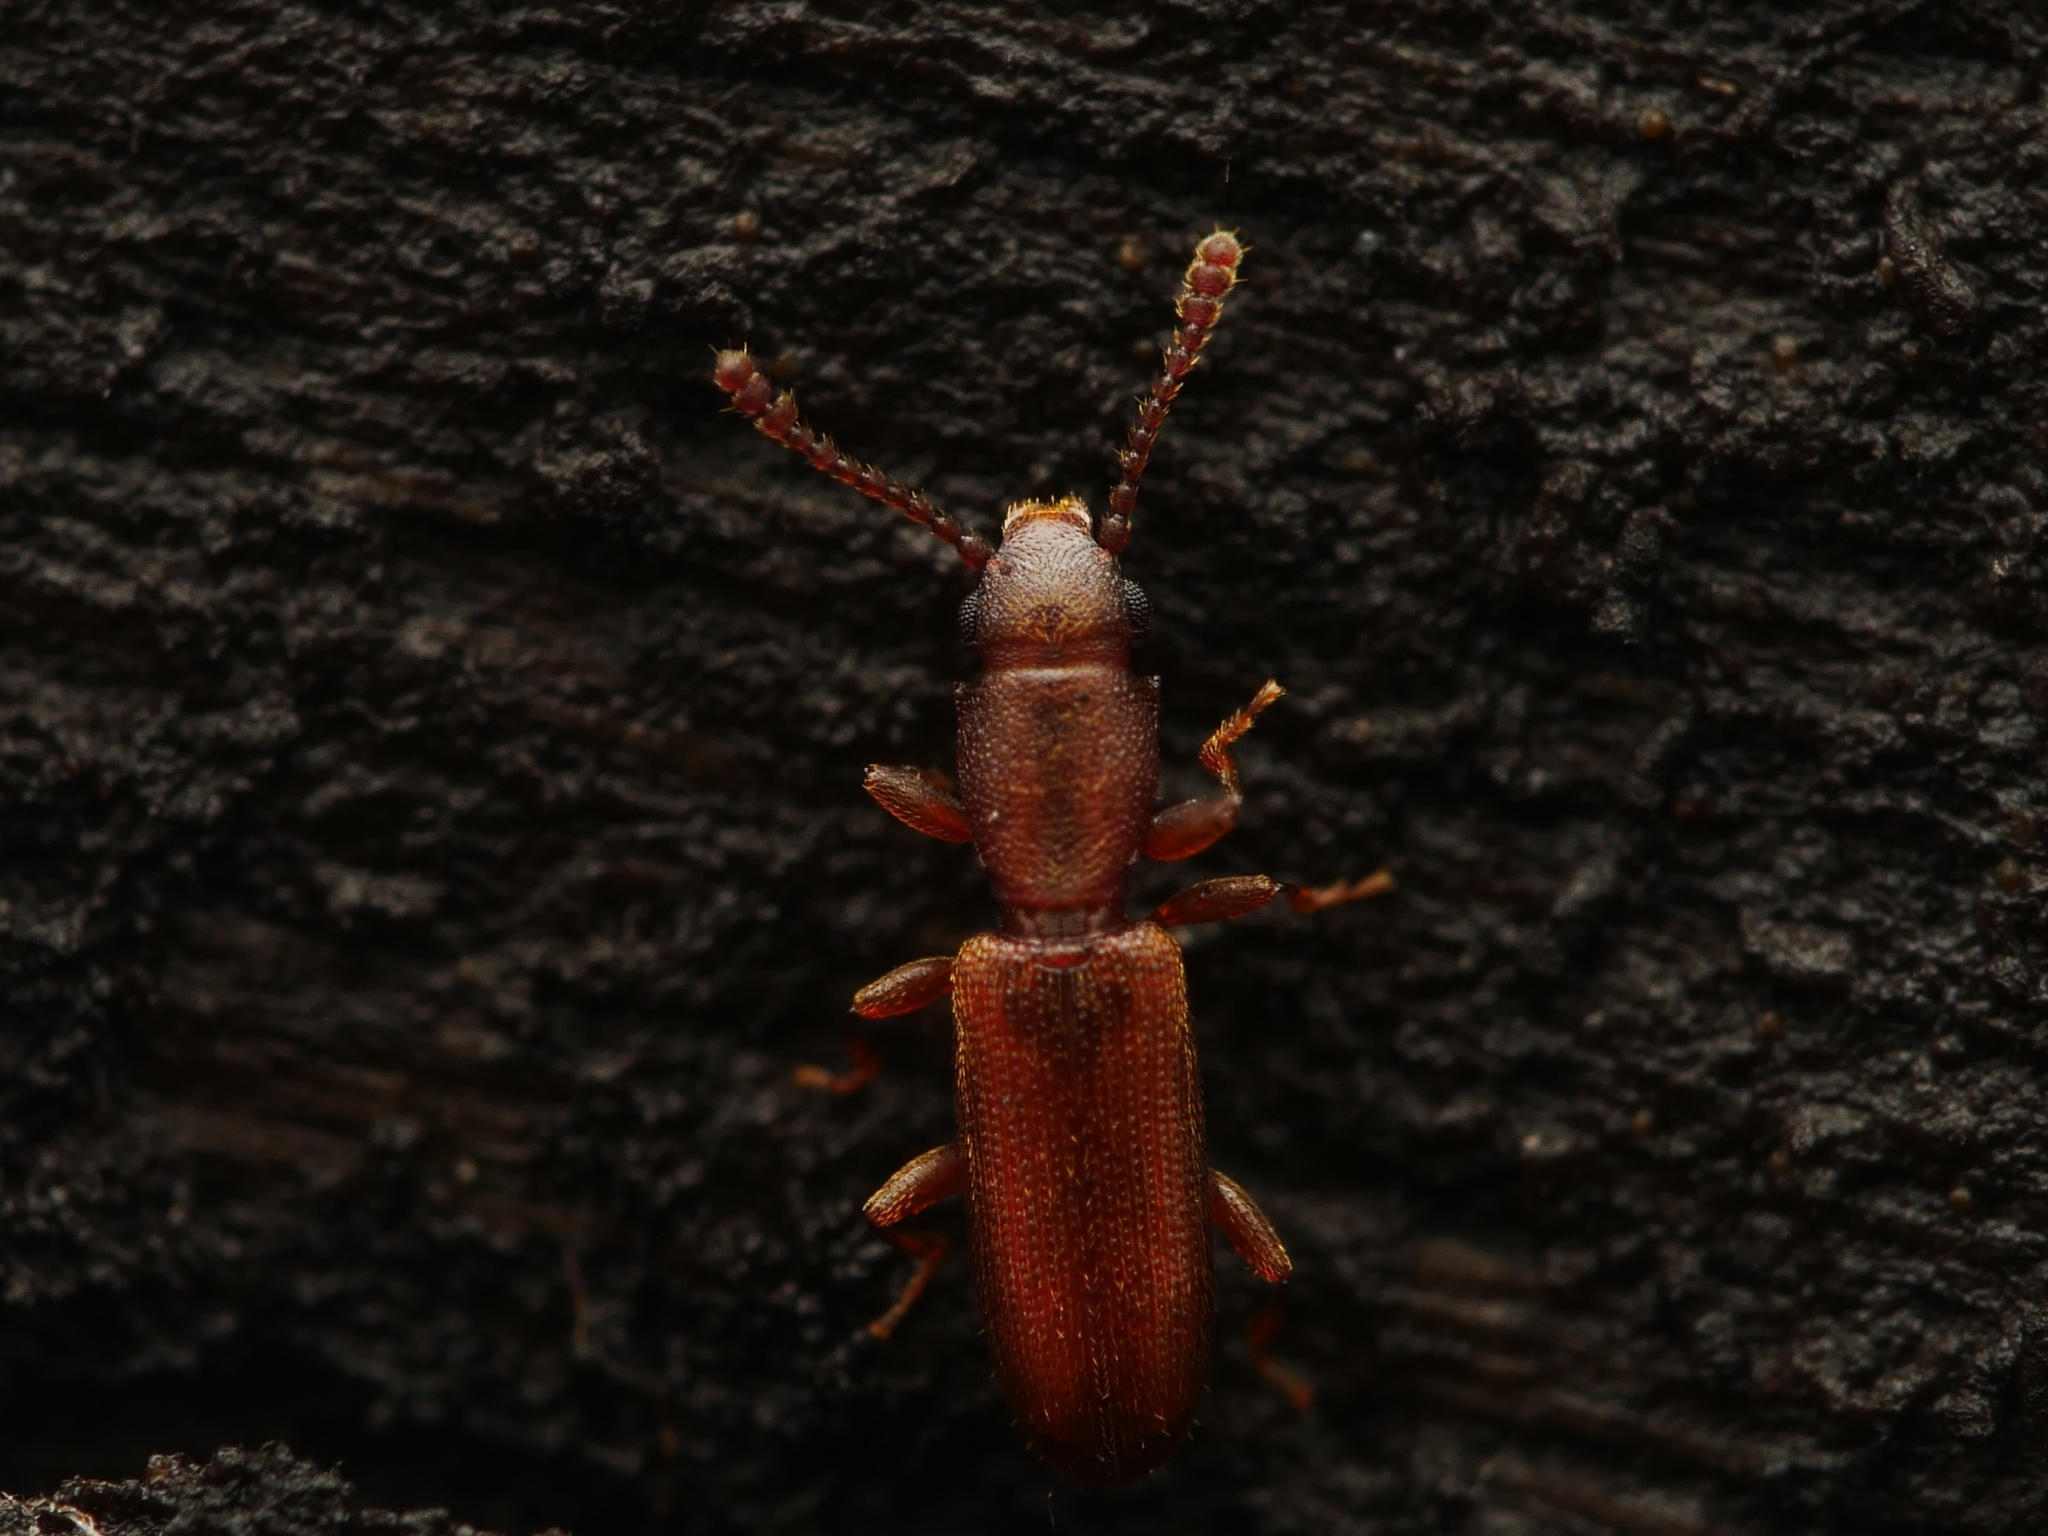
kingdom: Animalia
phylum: Arthropoda
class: Insecta
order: Coleoptera
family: Silvanidae
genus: Silvanus
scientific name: Silvanus unidentatus
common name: One-toothed silvan flat bark beetle
